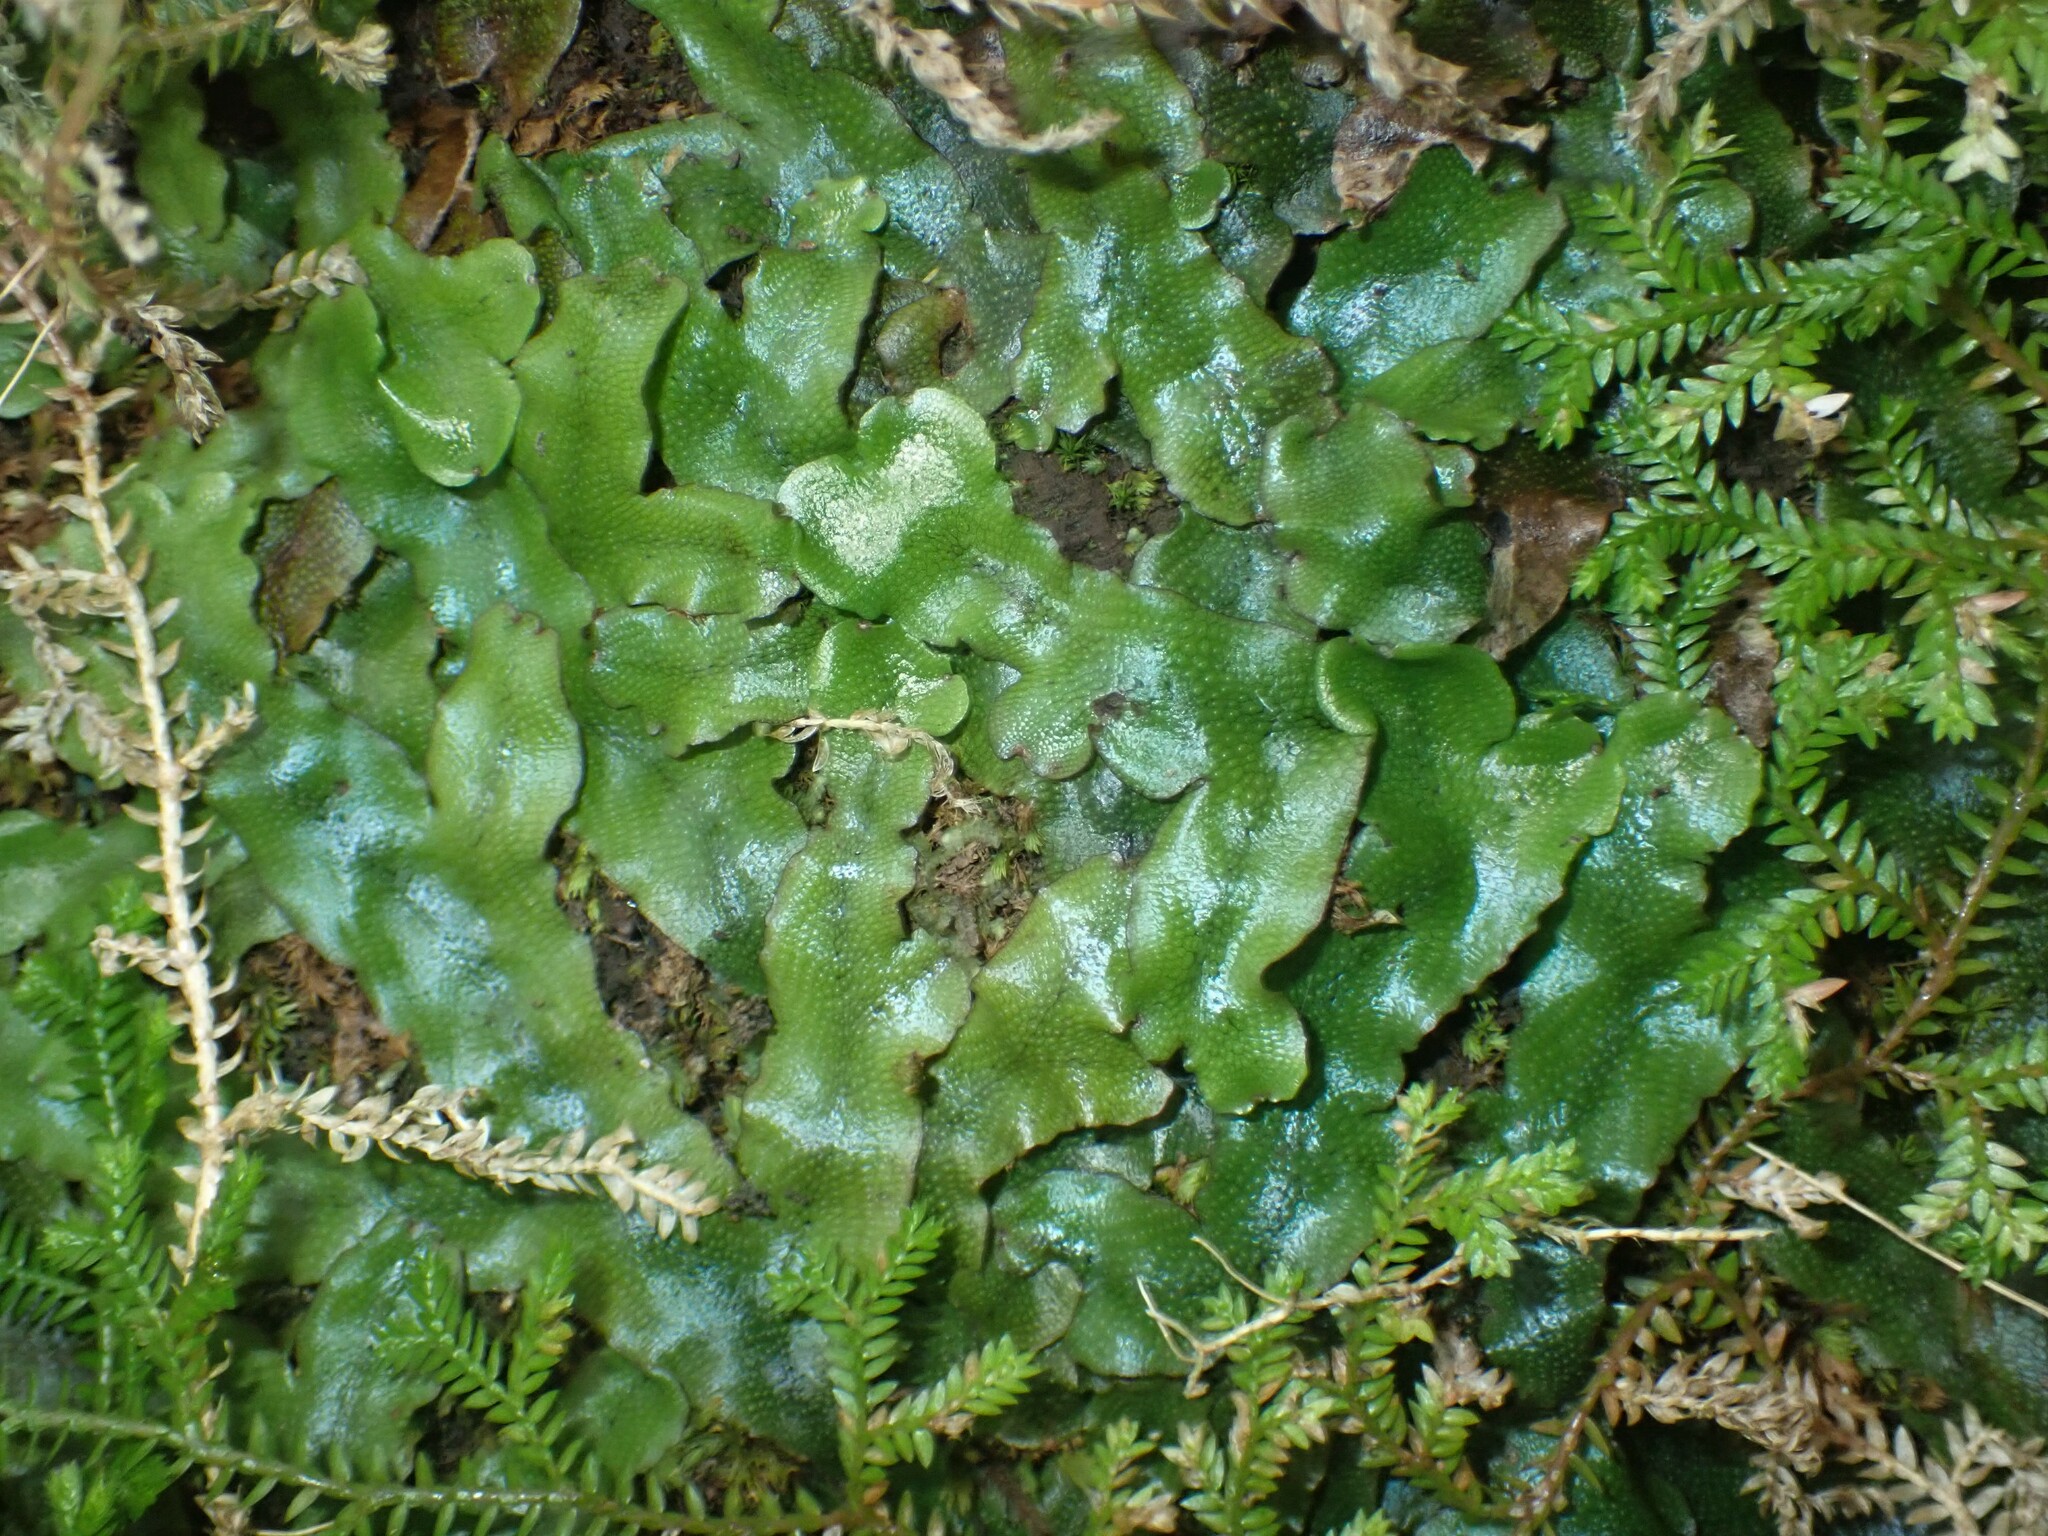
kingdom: Plantae
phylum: Marchantiophyta
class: Marchantiopsida
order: Marchantiales
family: Conocephalaceae
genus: Conocephalum
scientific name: Conocephalum conicum
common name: Great scented liverwort
